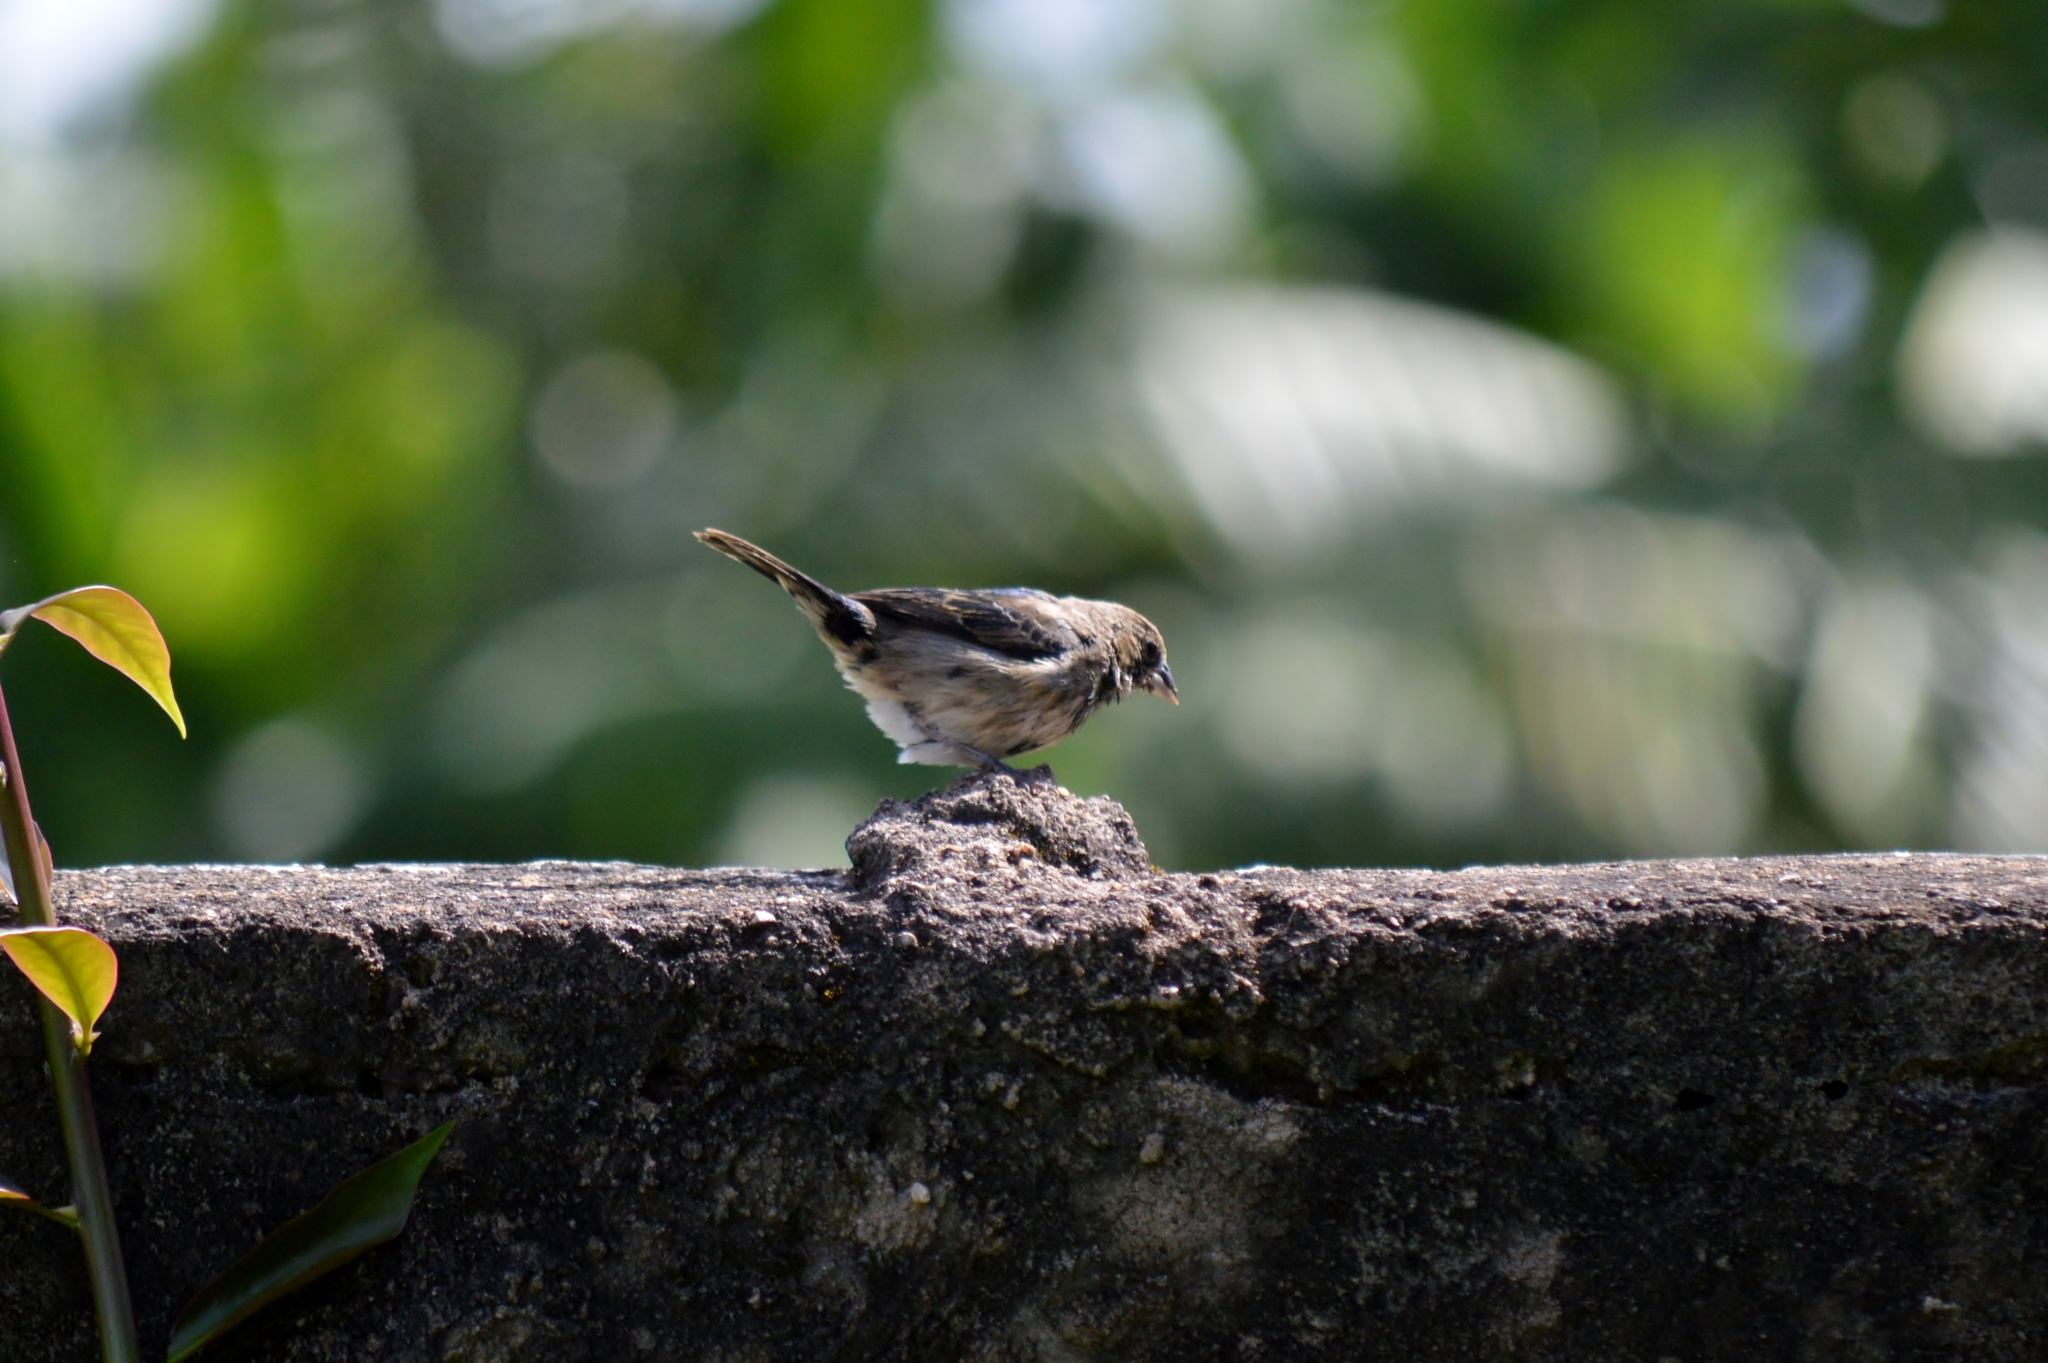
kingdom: Animalia
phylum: Chordata
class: Aves
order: Passeriformes
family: Thraupidae
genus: Volatinia
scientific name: Volatinia jacarina
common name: Blue-black grassquit
